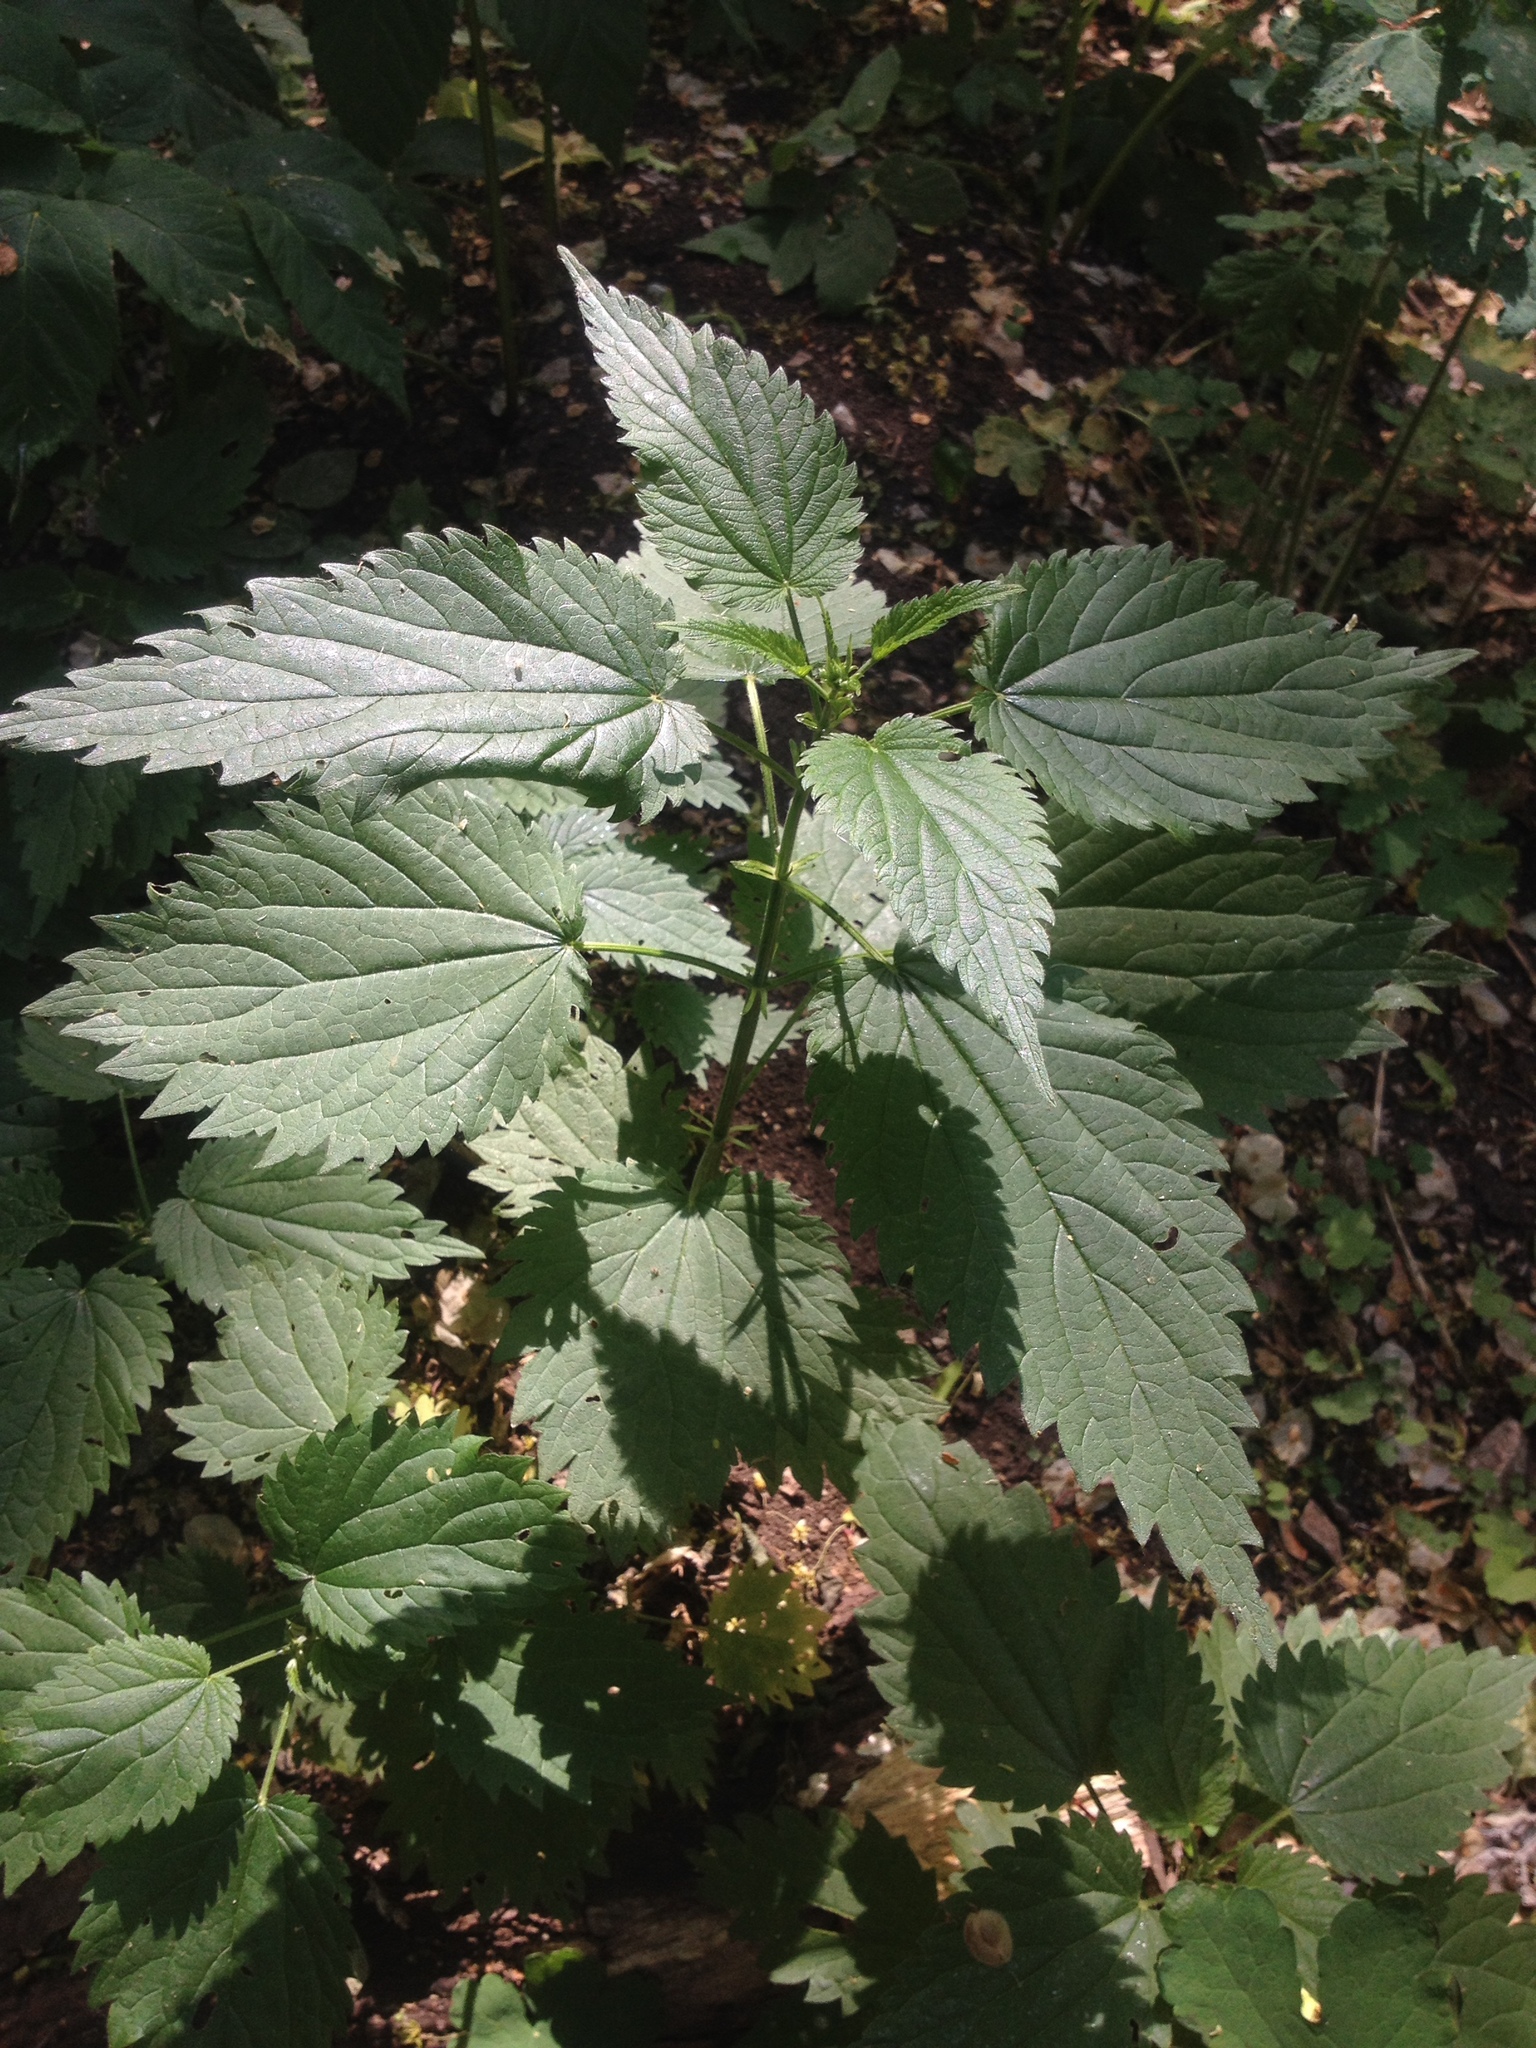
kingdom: Plantae
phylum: Tracheophyta
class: Magnoliopsida
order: Rosales
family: Urticaceae
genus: Urtica
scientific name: Urtica dioica
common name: Common nettle
